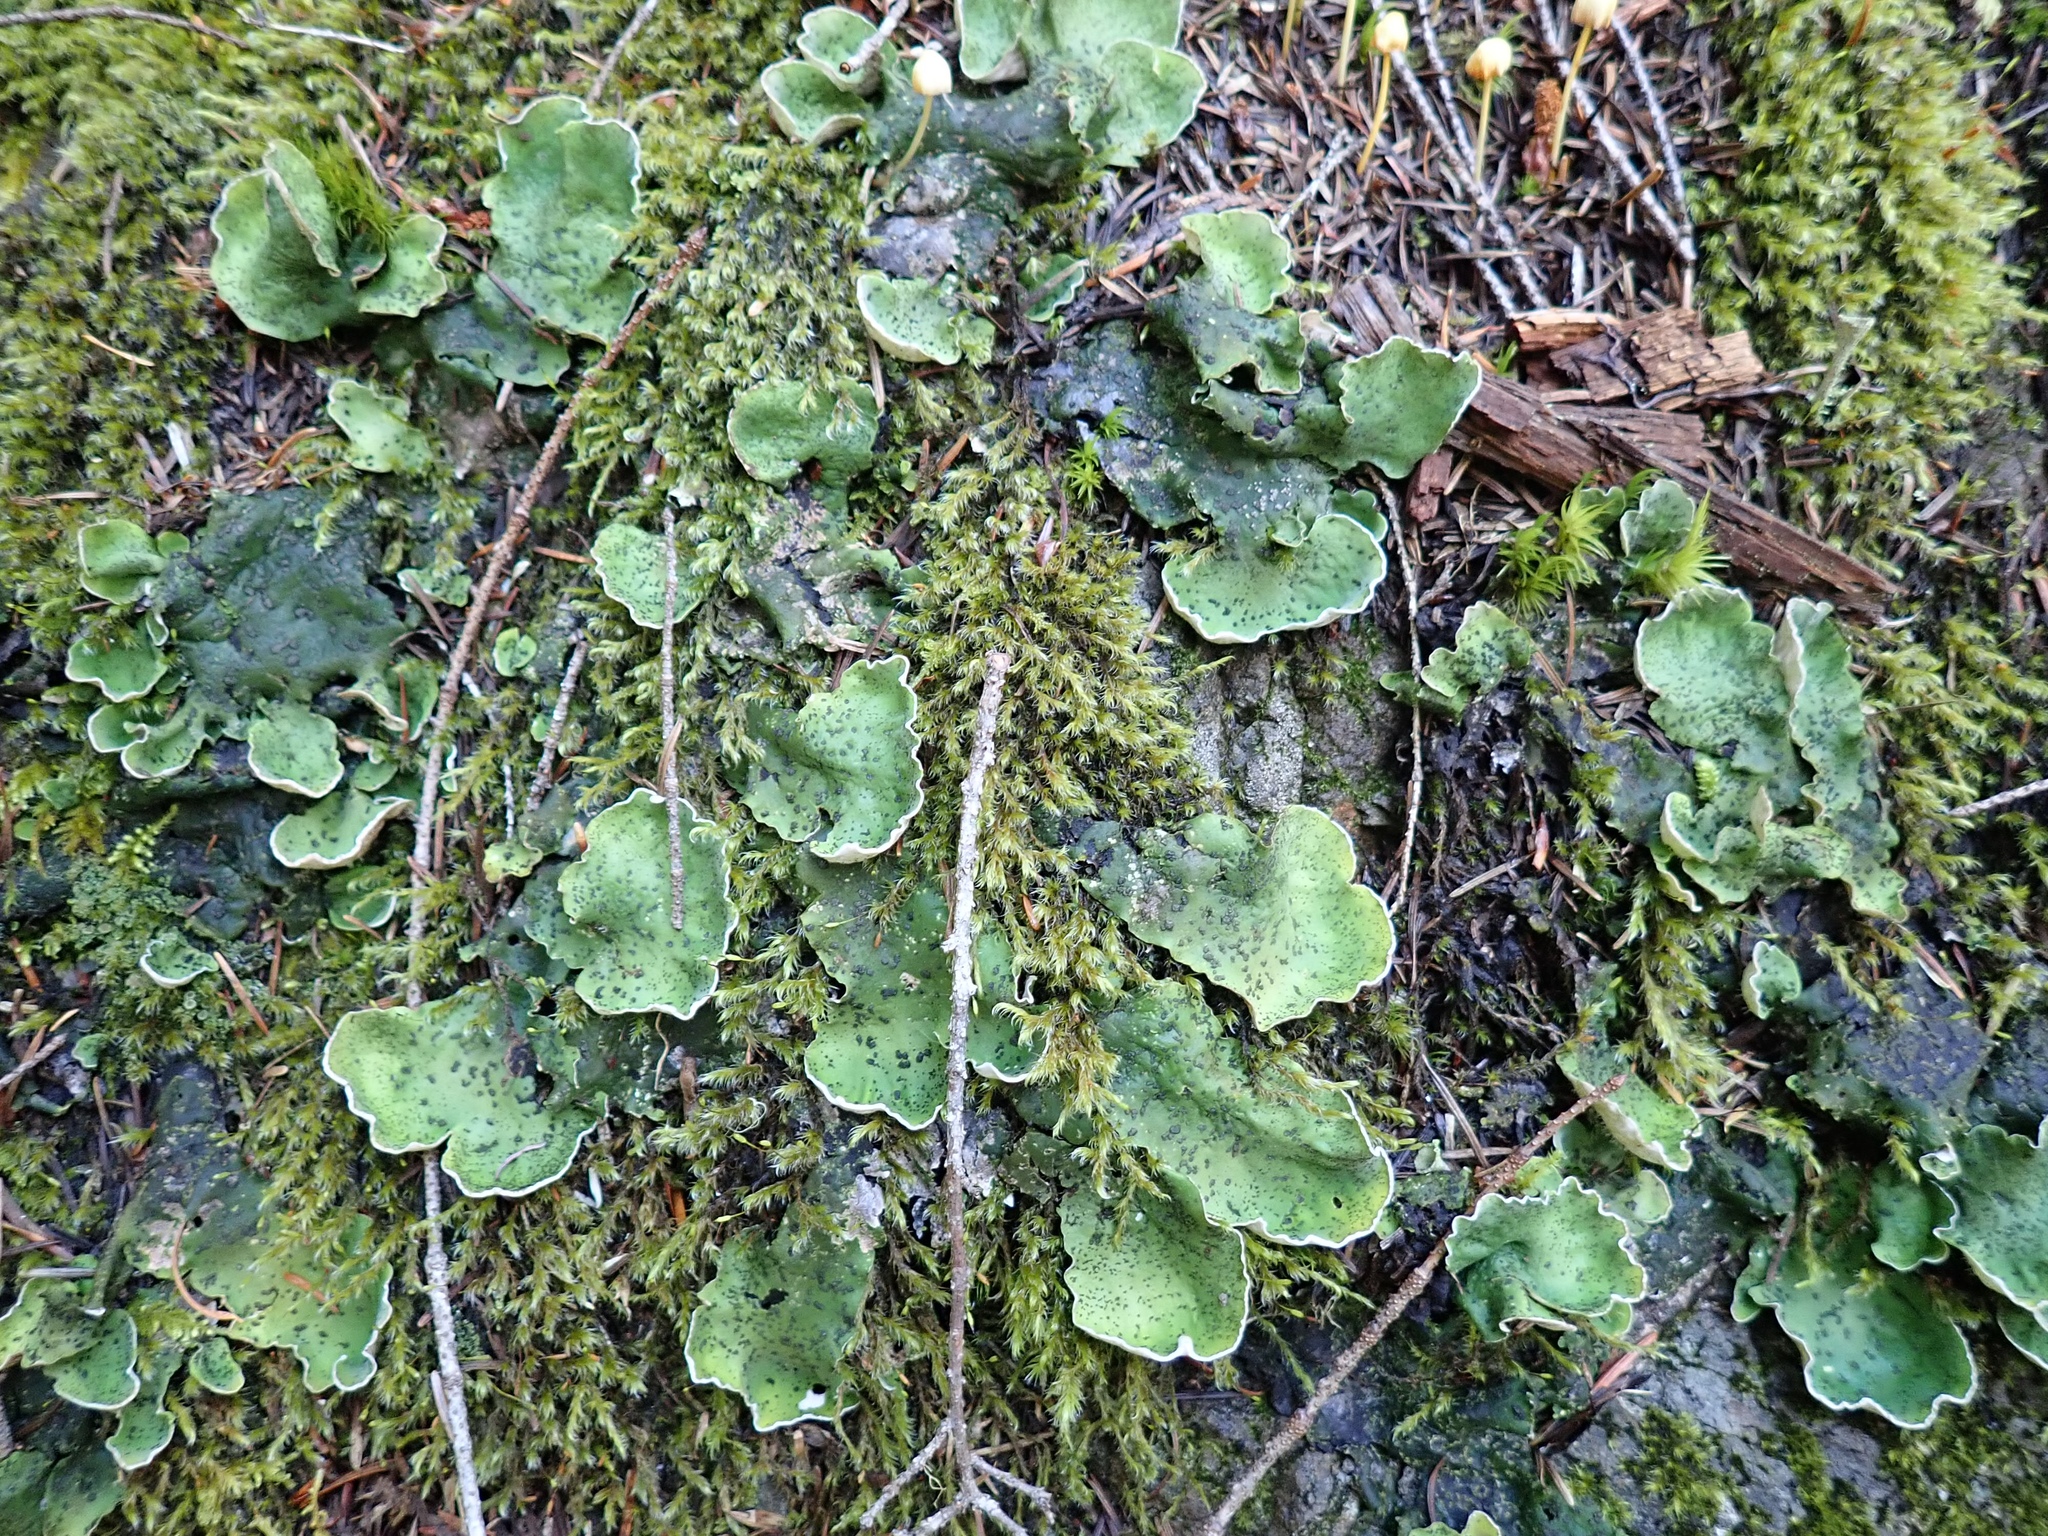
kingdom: Fungi
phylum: Ascomycota
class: Lecanoromycetes
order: Peltigerales
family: Peltigeraceae
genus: Peltigera
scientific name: Peltigera britannica
